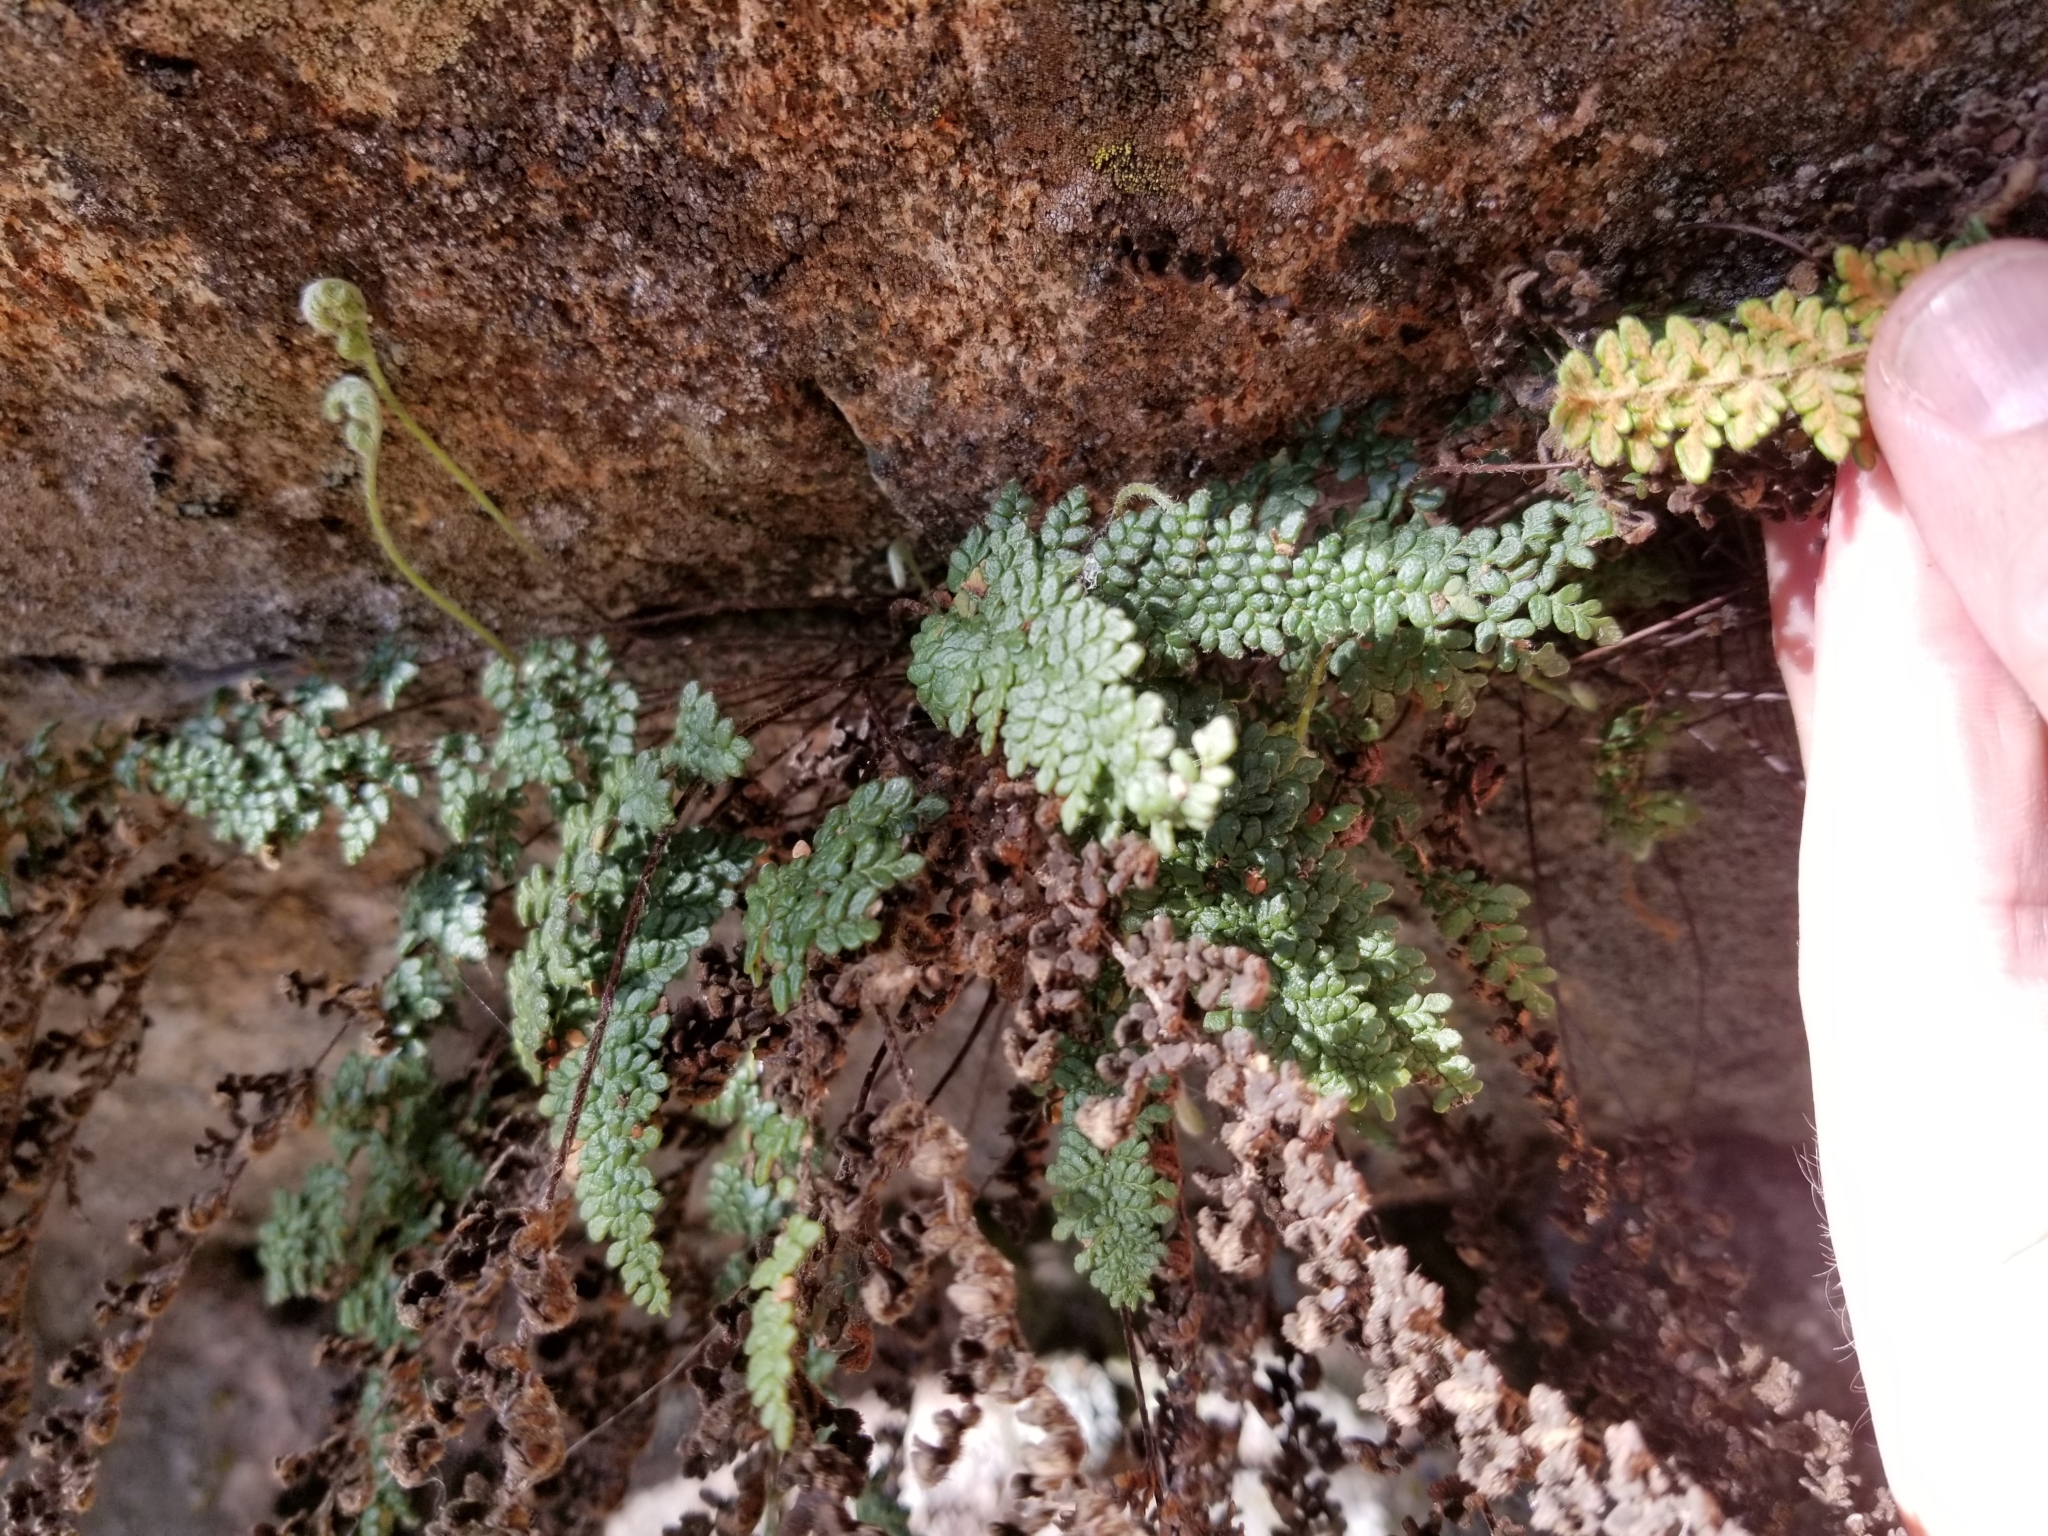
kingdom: Plantae
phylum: Tracheophyta
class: Polypodiopsida
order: Polypodiales
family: Pteridaceae
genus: Myriopteris
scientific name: Myriopteris gracillima
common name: Lace fern
